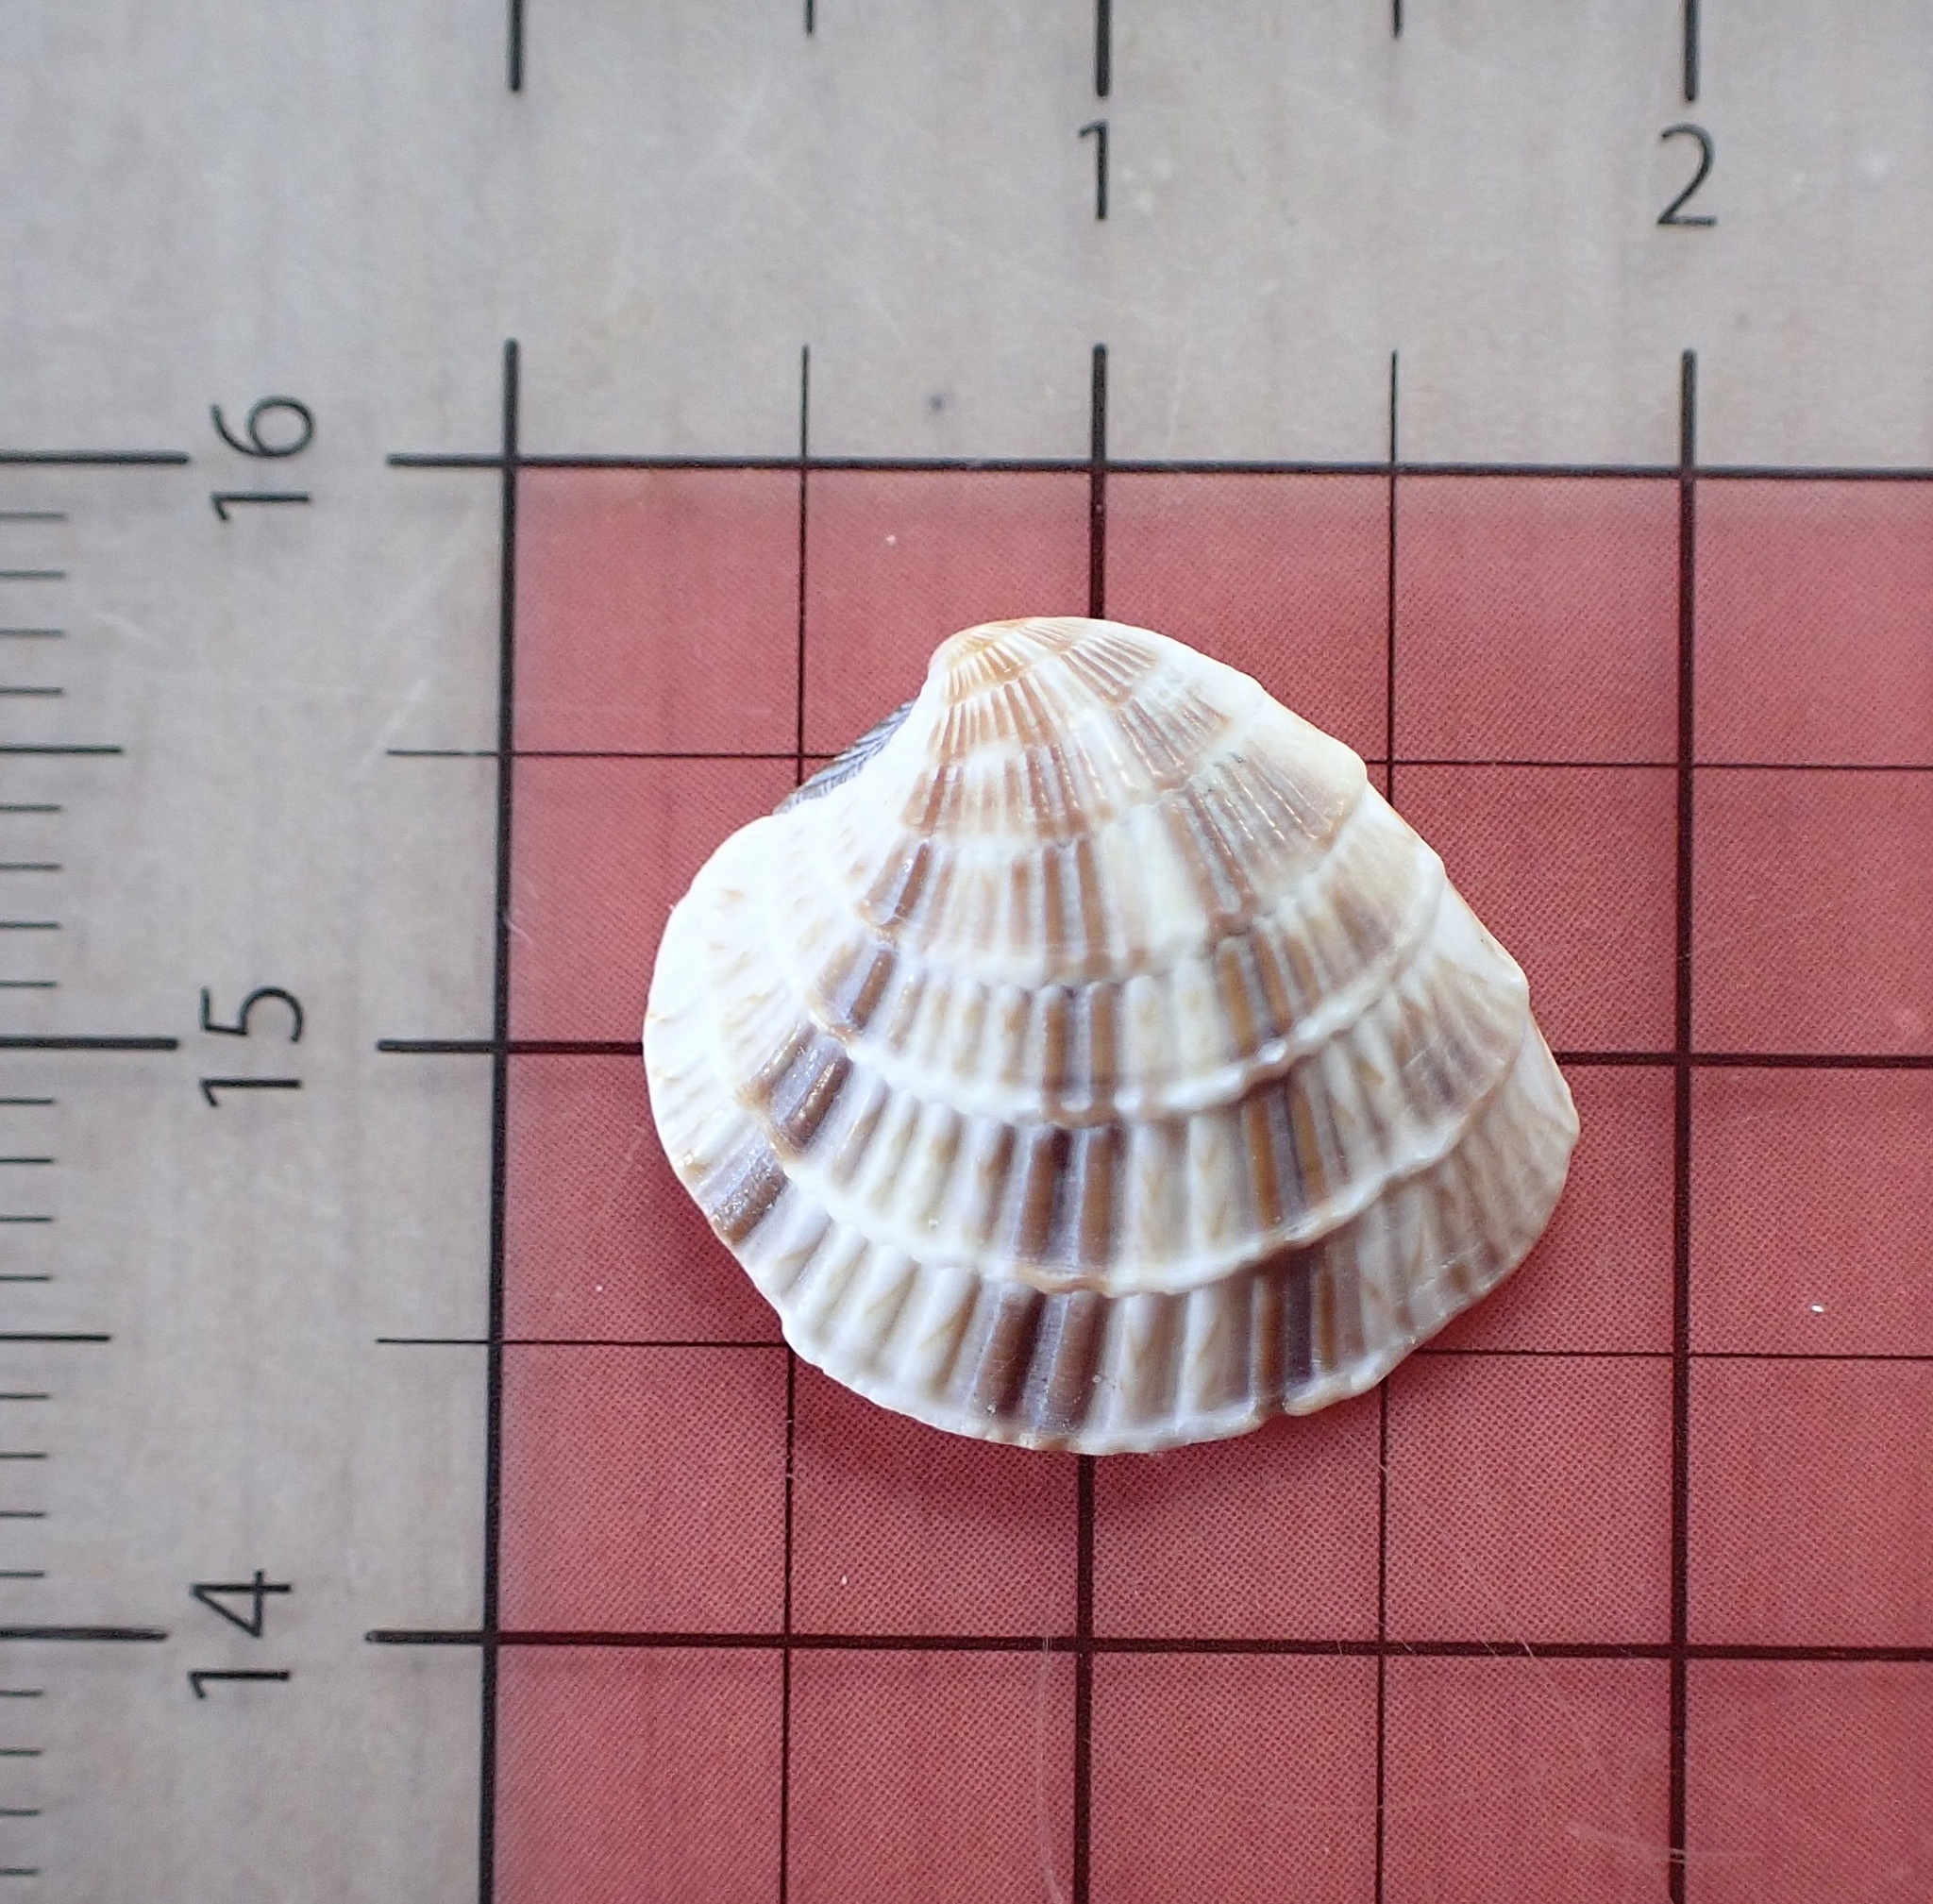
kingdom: Animalia
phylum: Mollusca
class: Bivalvia
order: Venerida
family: Veneridae
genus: Chione
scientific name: Chione elevata
